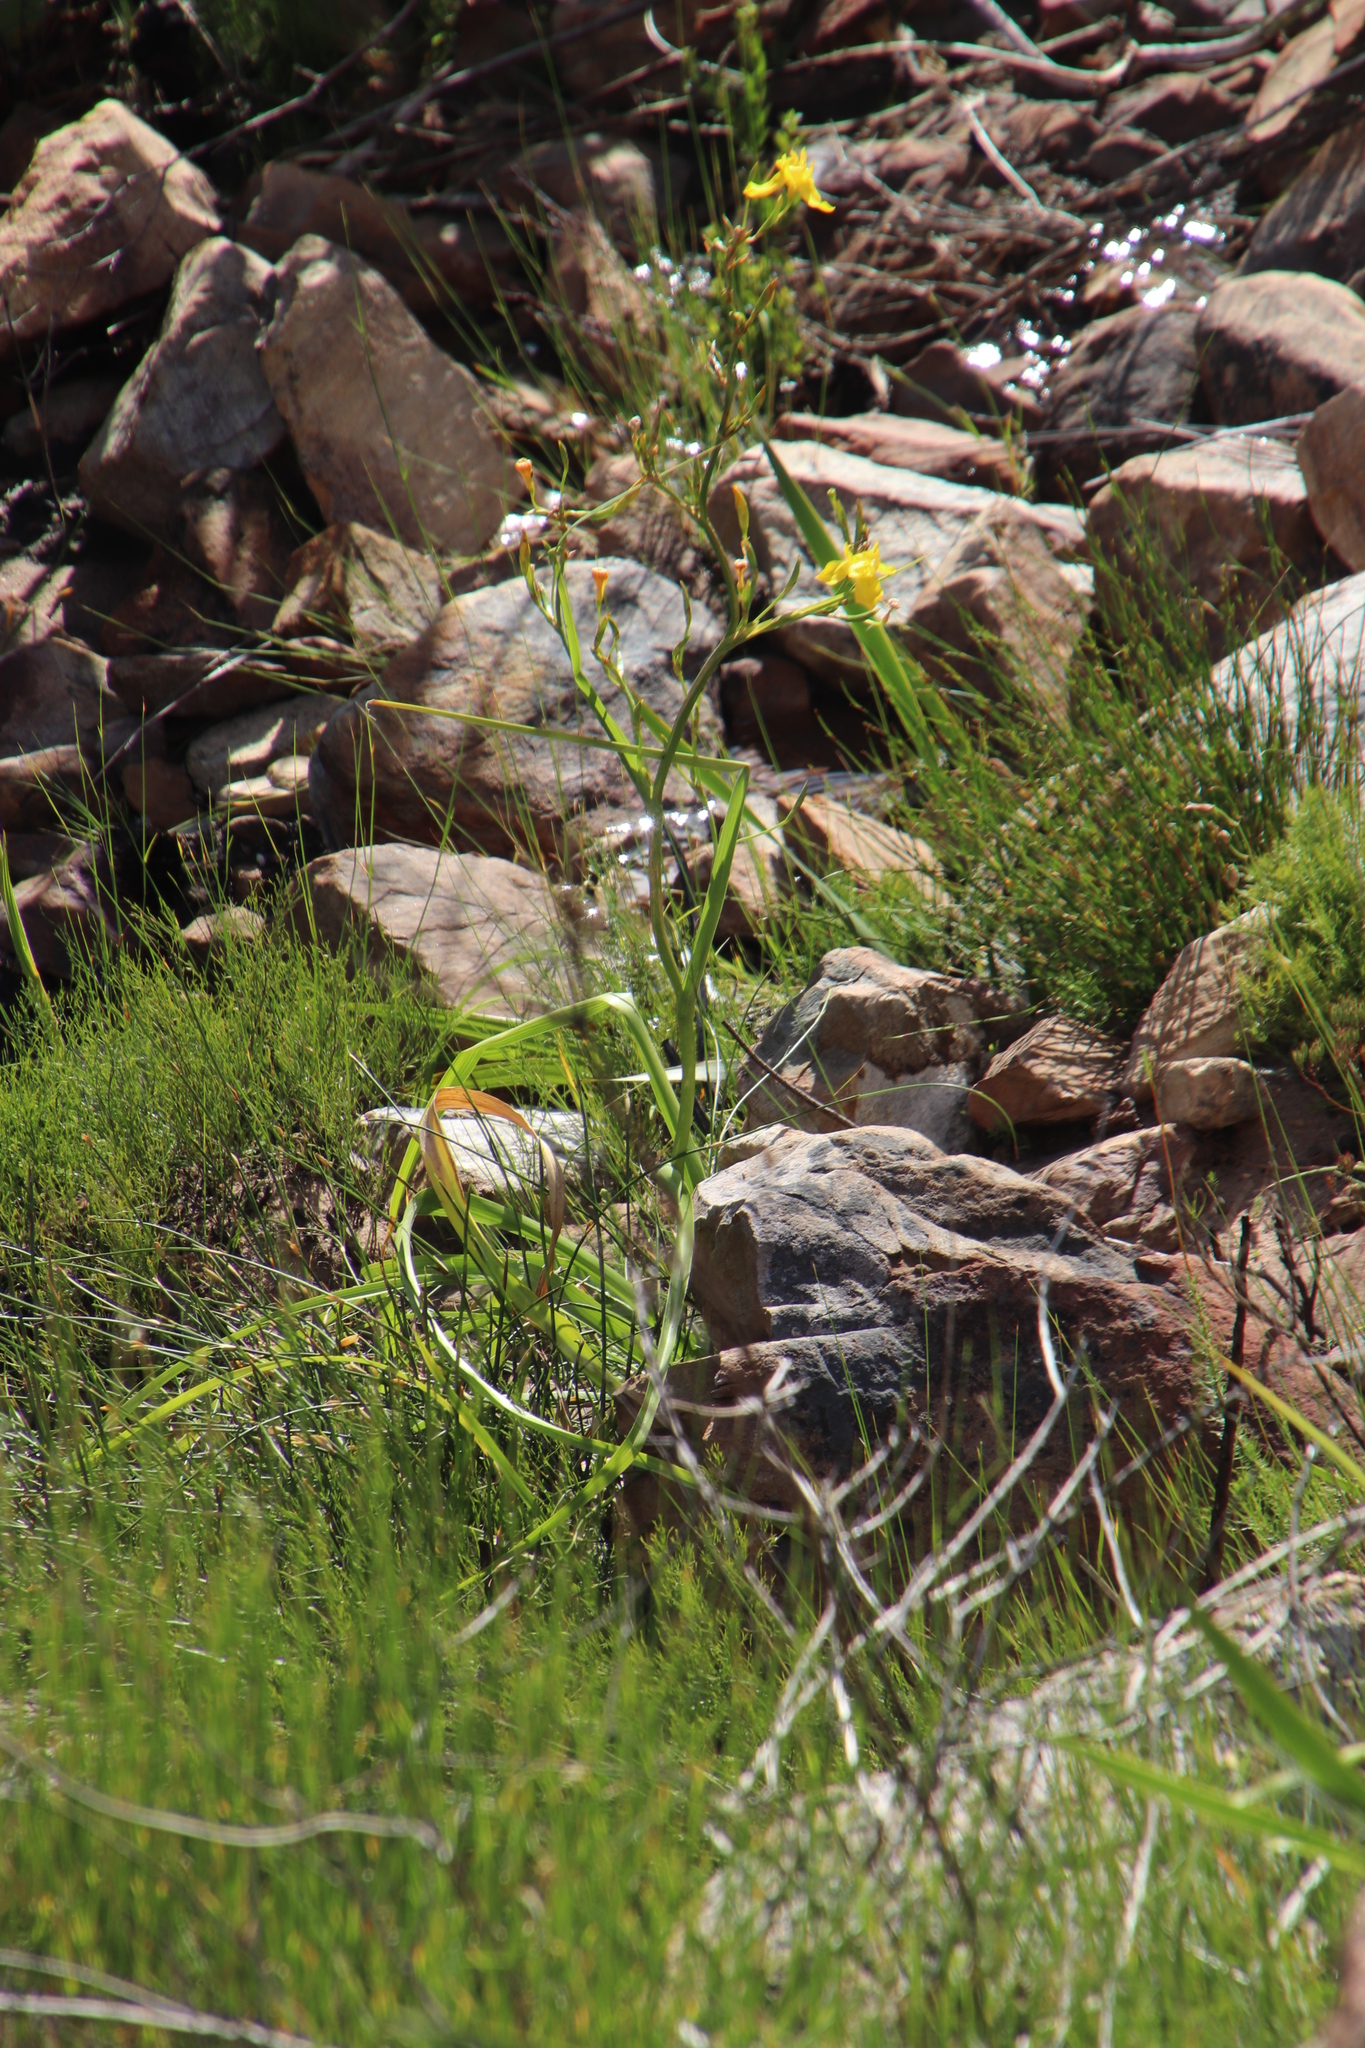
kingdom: Plantae
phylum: Tracheophyta
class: Liliopsida
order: Asparagales
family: Iridaceae
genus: Moraea
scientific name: Moraea ramosissima
